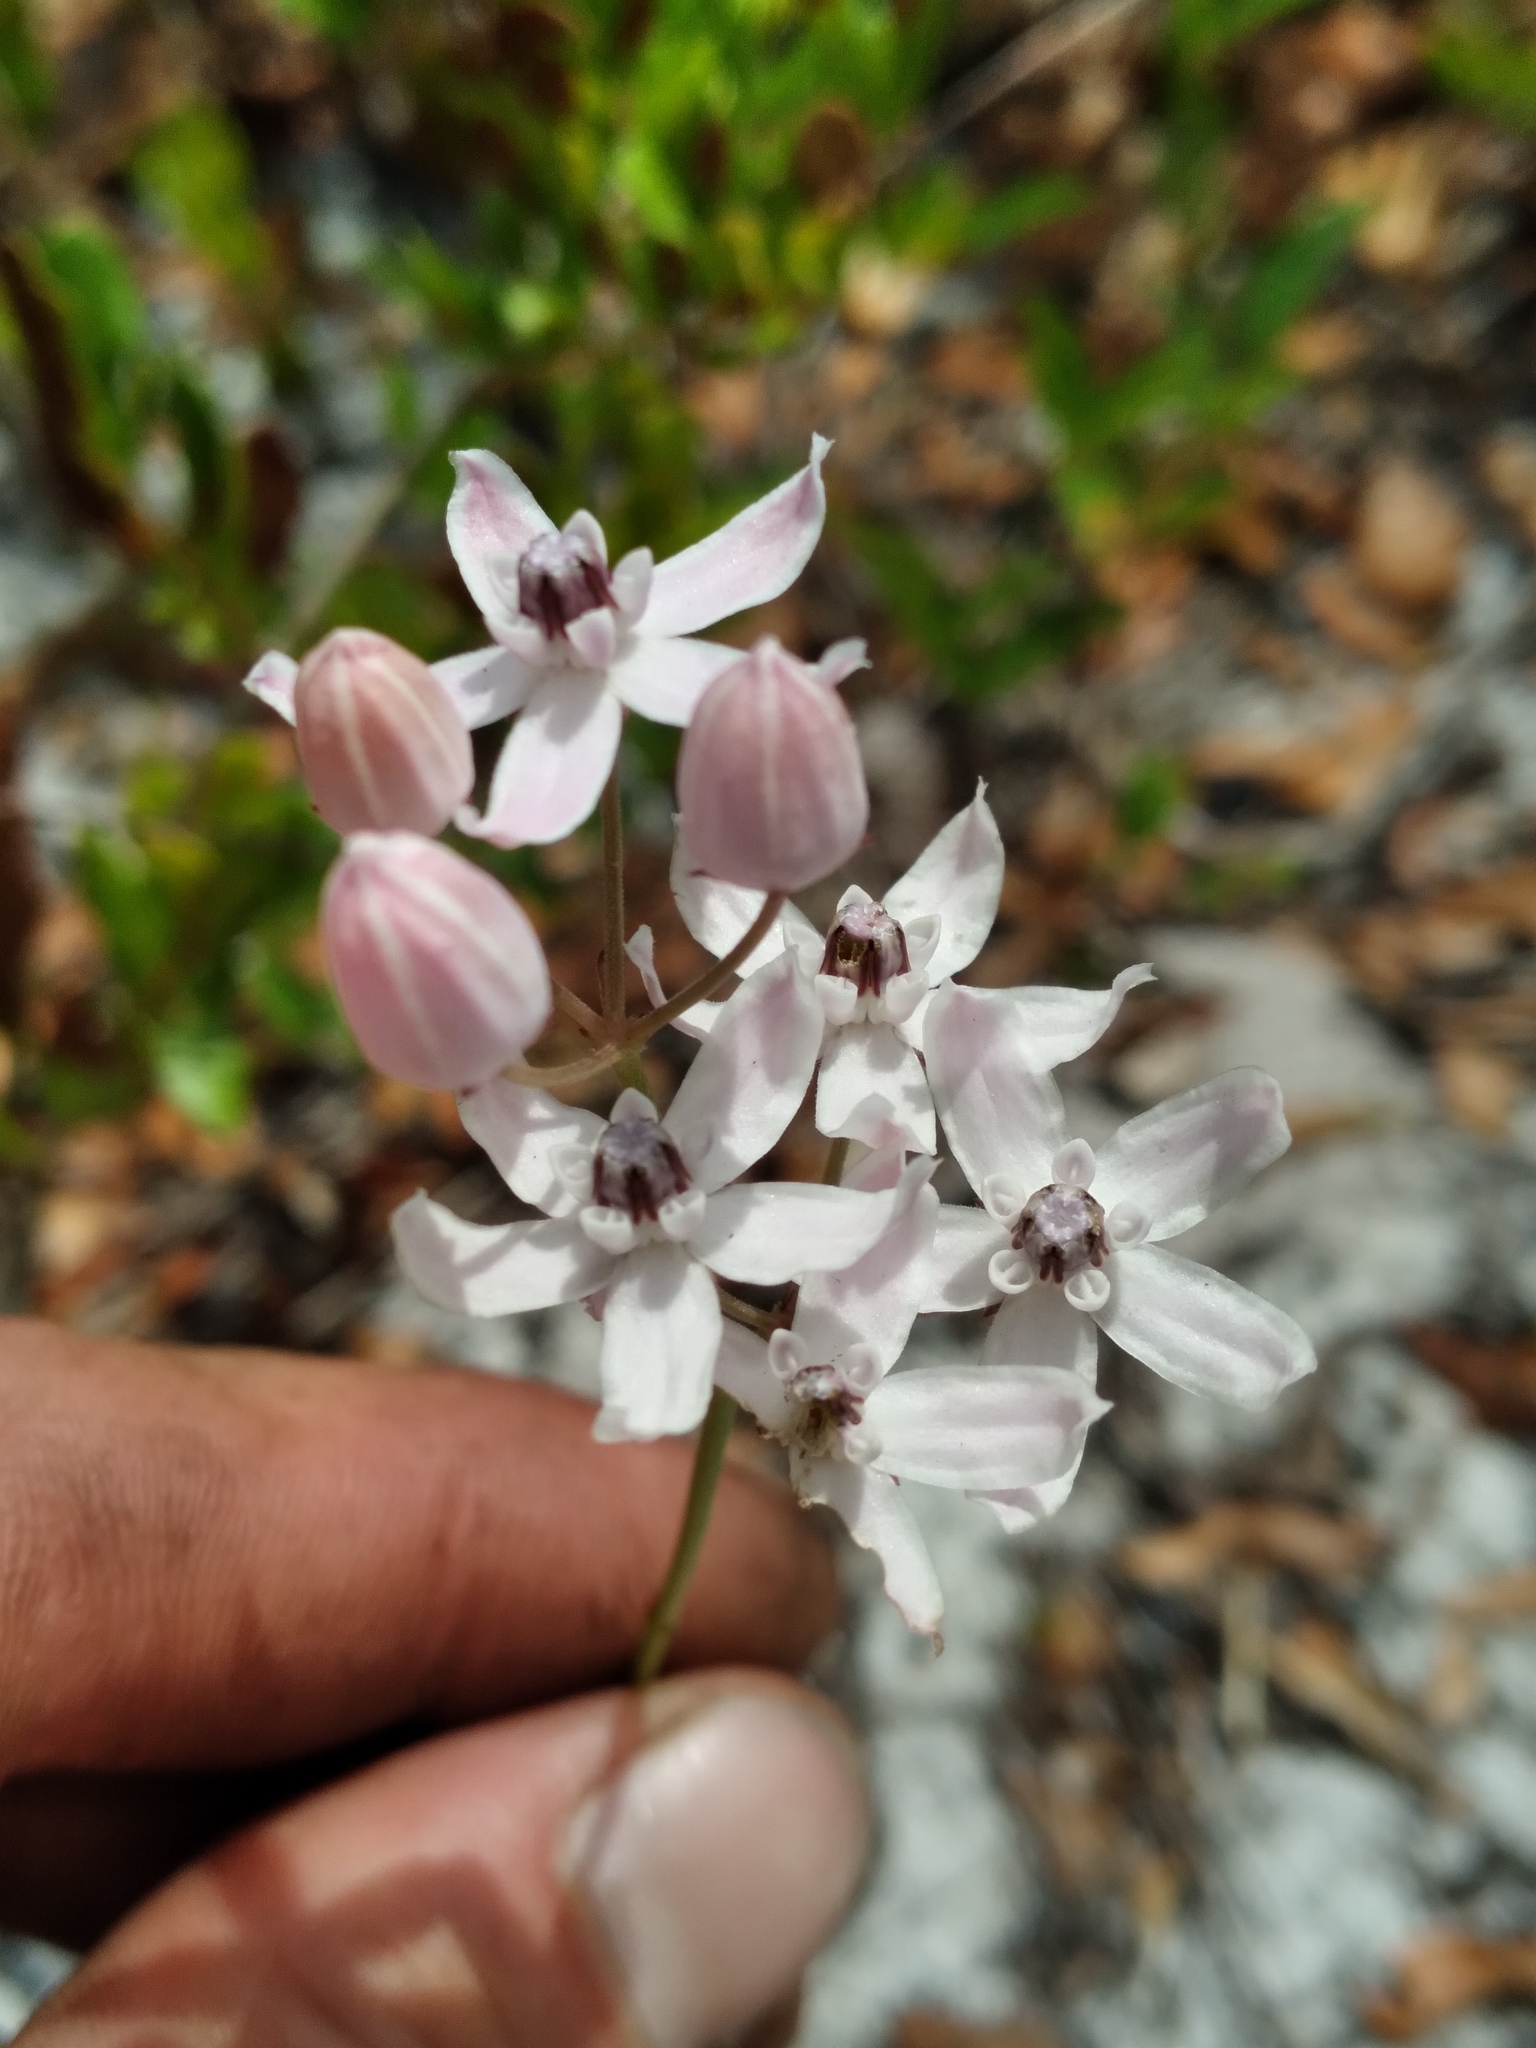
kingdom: Plantae
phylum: Tracheophyta
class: Magnoliopsida
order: Gentianales
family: Apocynaceae
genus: Asclepias
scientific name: Asclepias feayi
